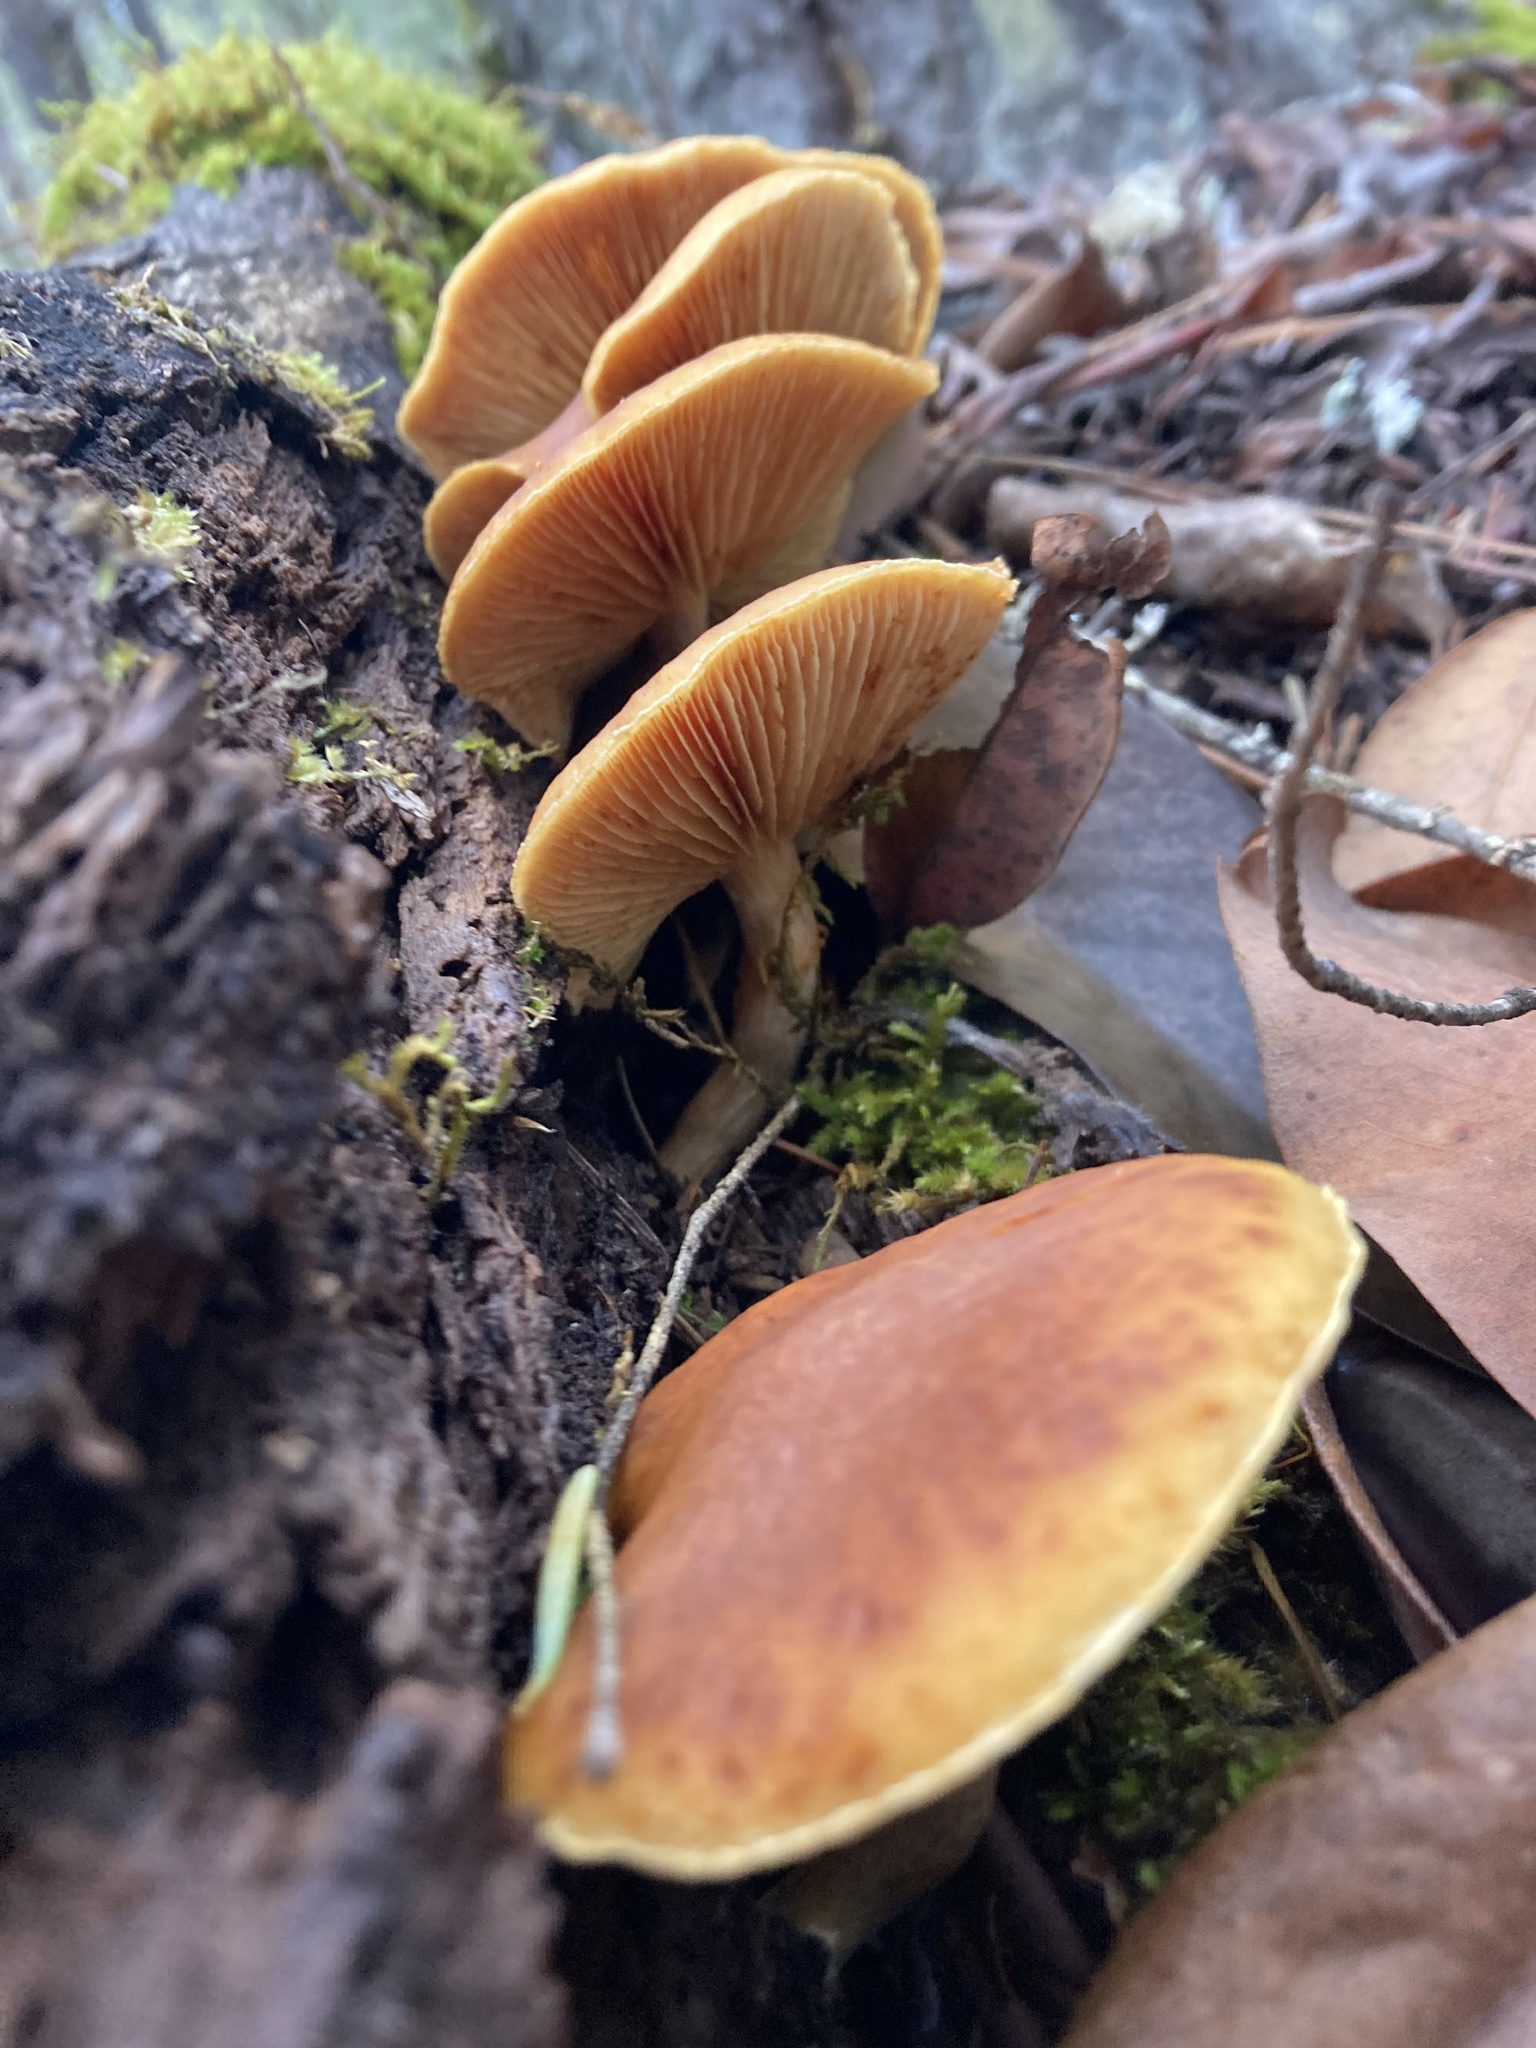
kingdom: Fungi
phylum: Basidiomycota
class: Agaricomycetes
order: Agaricales
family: Hymenogastraceae
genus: Gymnopilus
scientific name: Gymnopilus sapineus
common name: Scaly rustgill
